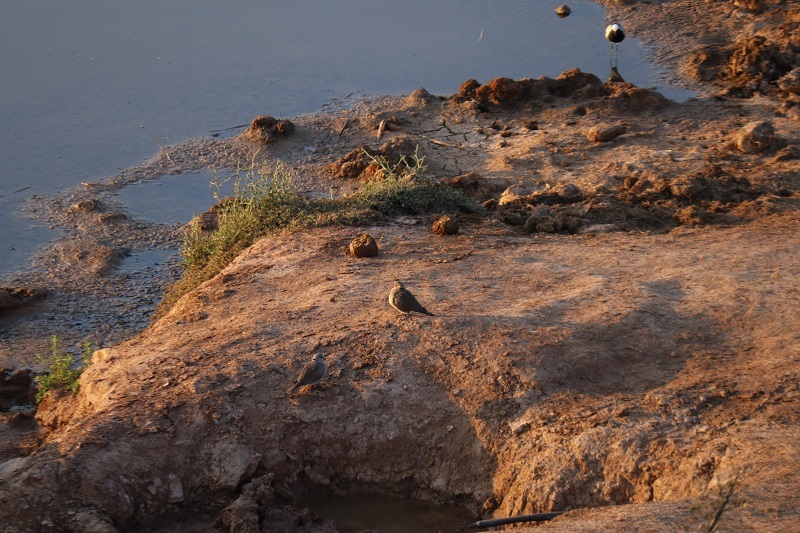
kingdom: Animalia
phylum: Chordata
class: Aves
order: Columbiformes
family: Columbidae
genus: Streptopelia
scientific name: Streptopelia capicola
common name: Ring-necked dove
